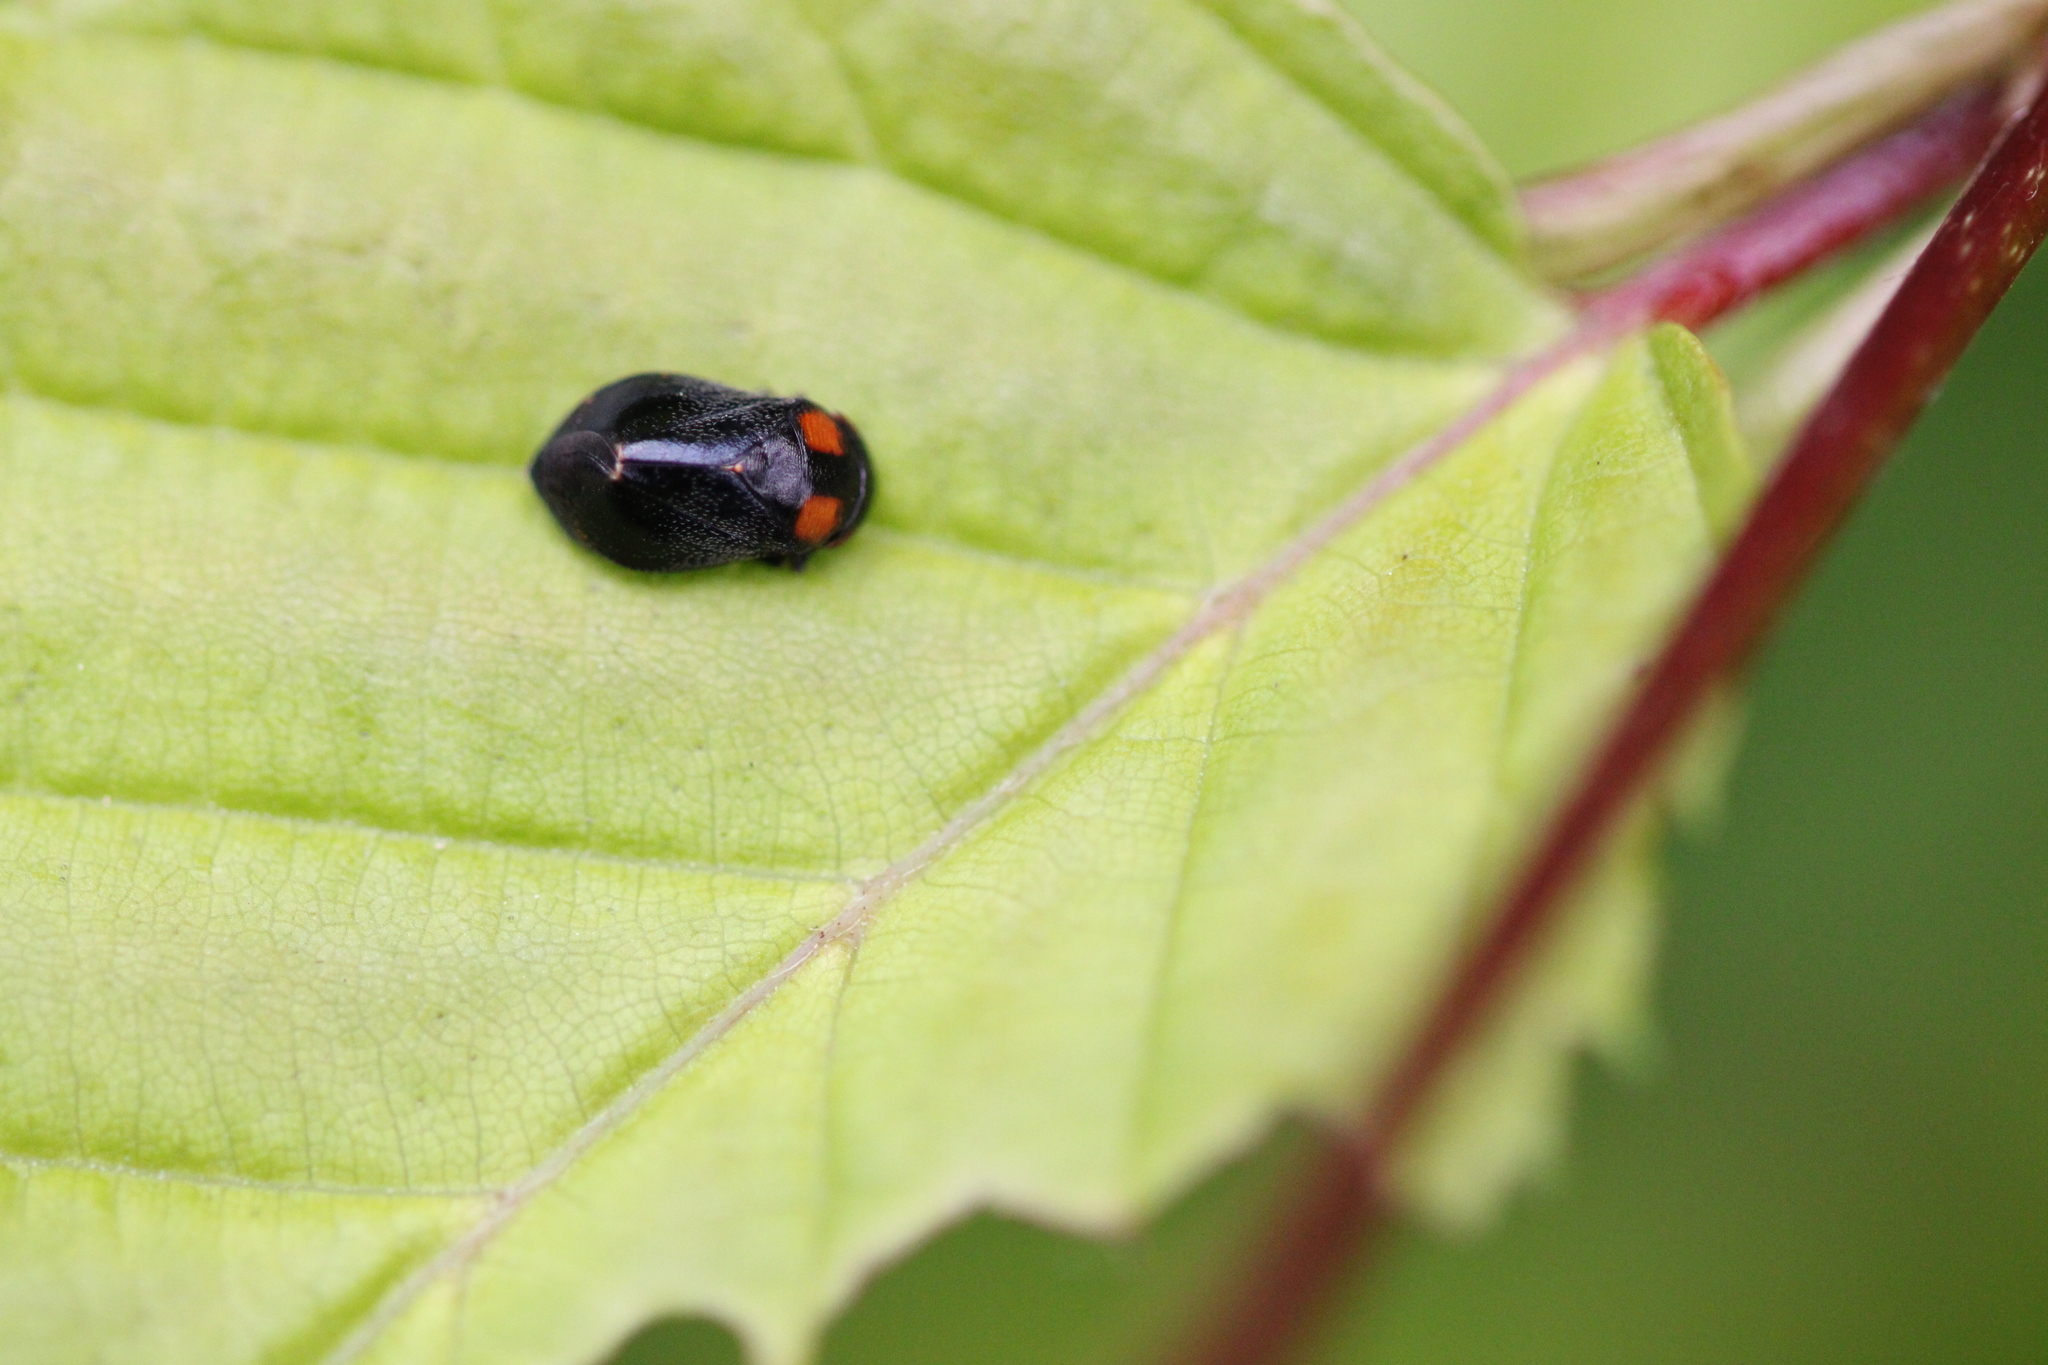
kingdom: Animalia
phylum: Arthropoda
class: Insecta
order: Hemiptera
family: Cicadellidae
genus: Penthimia
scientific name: Penthimia nigra
